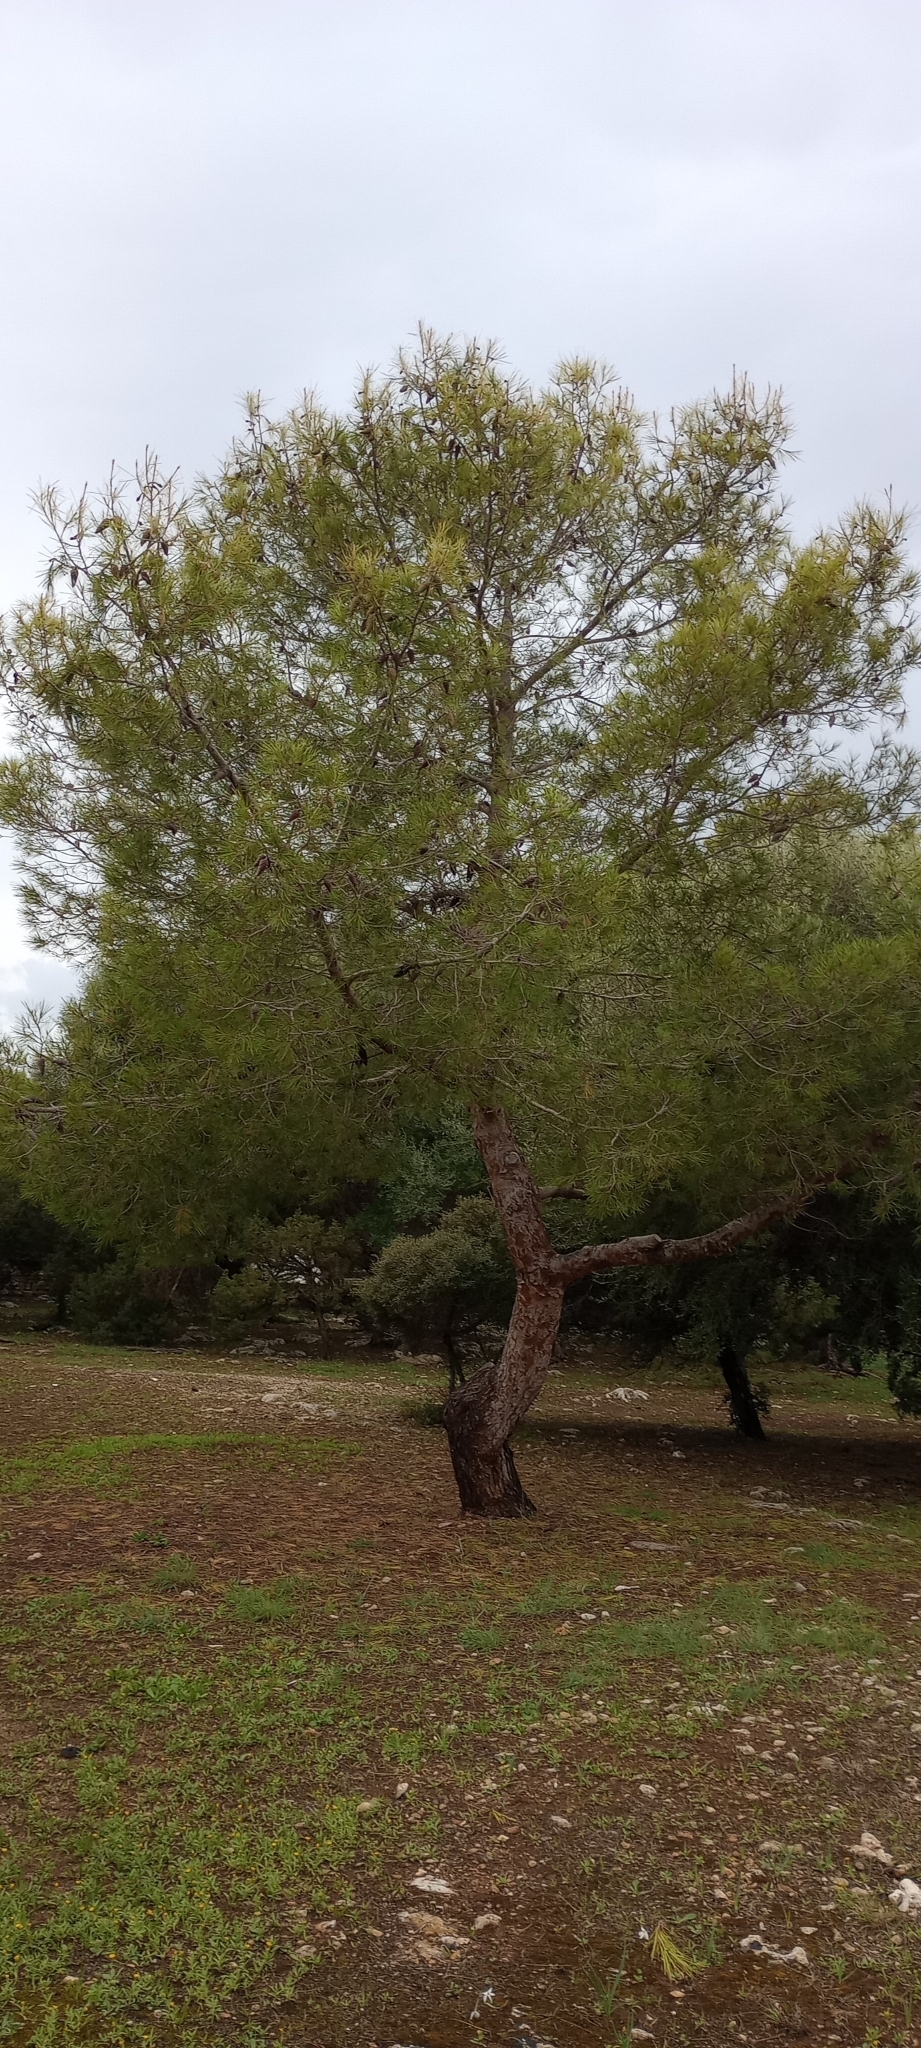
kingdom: Plantae
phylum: Tracheophyta
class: Pinopsida
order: Pinales
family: Pinaceae
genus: Pinus
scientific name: Pinus halepensis
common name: Aleppo pine
